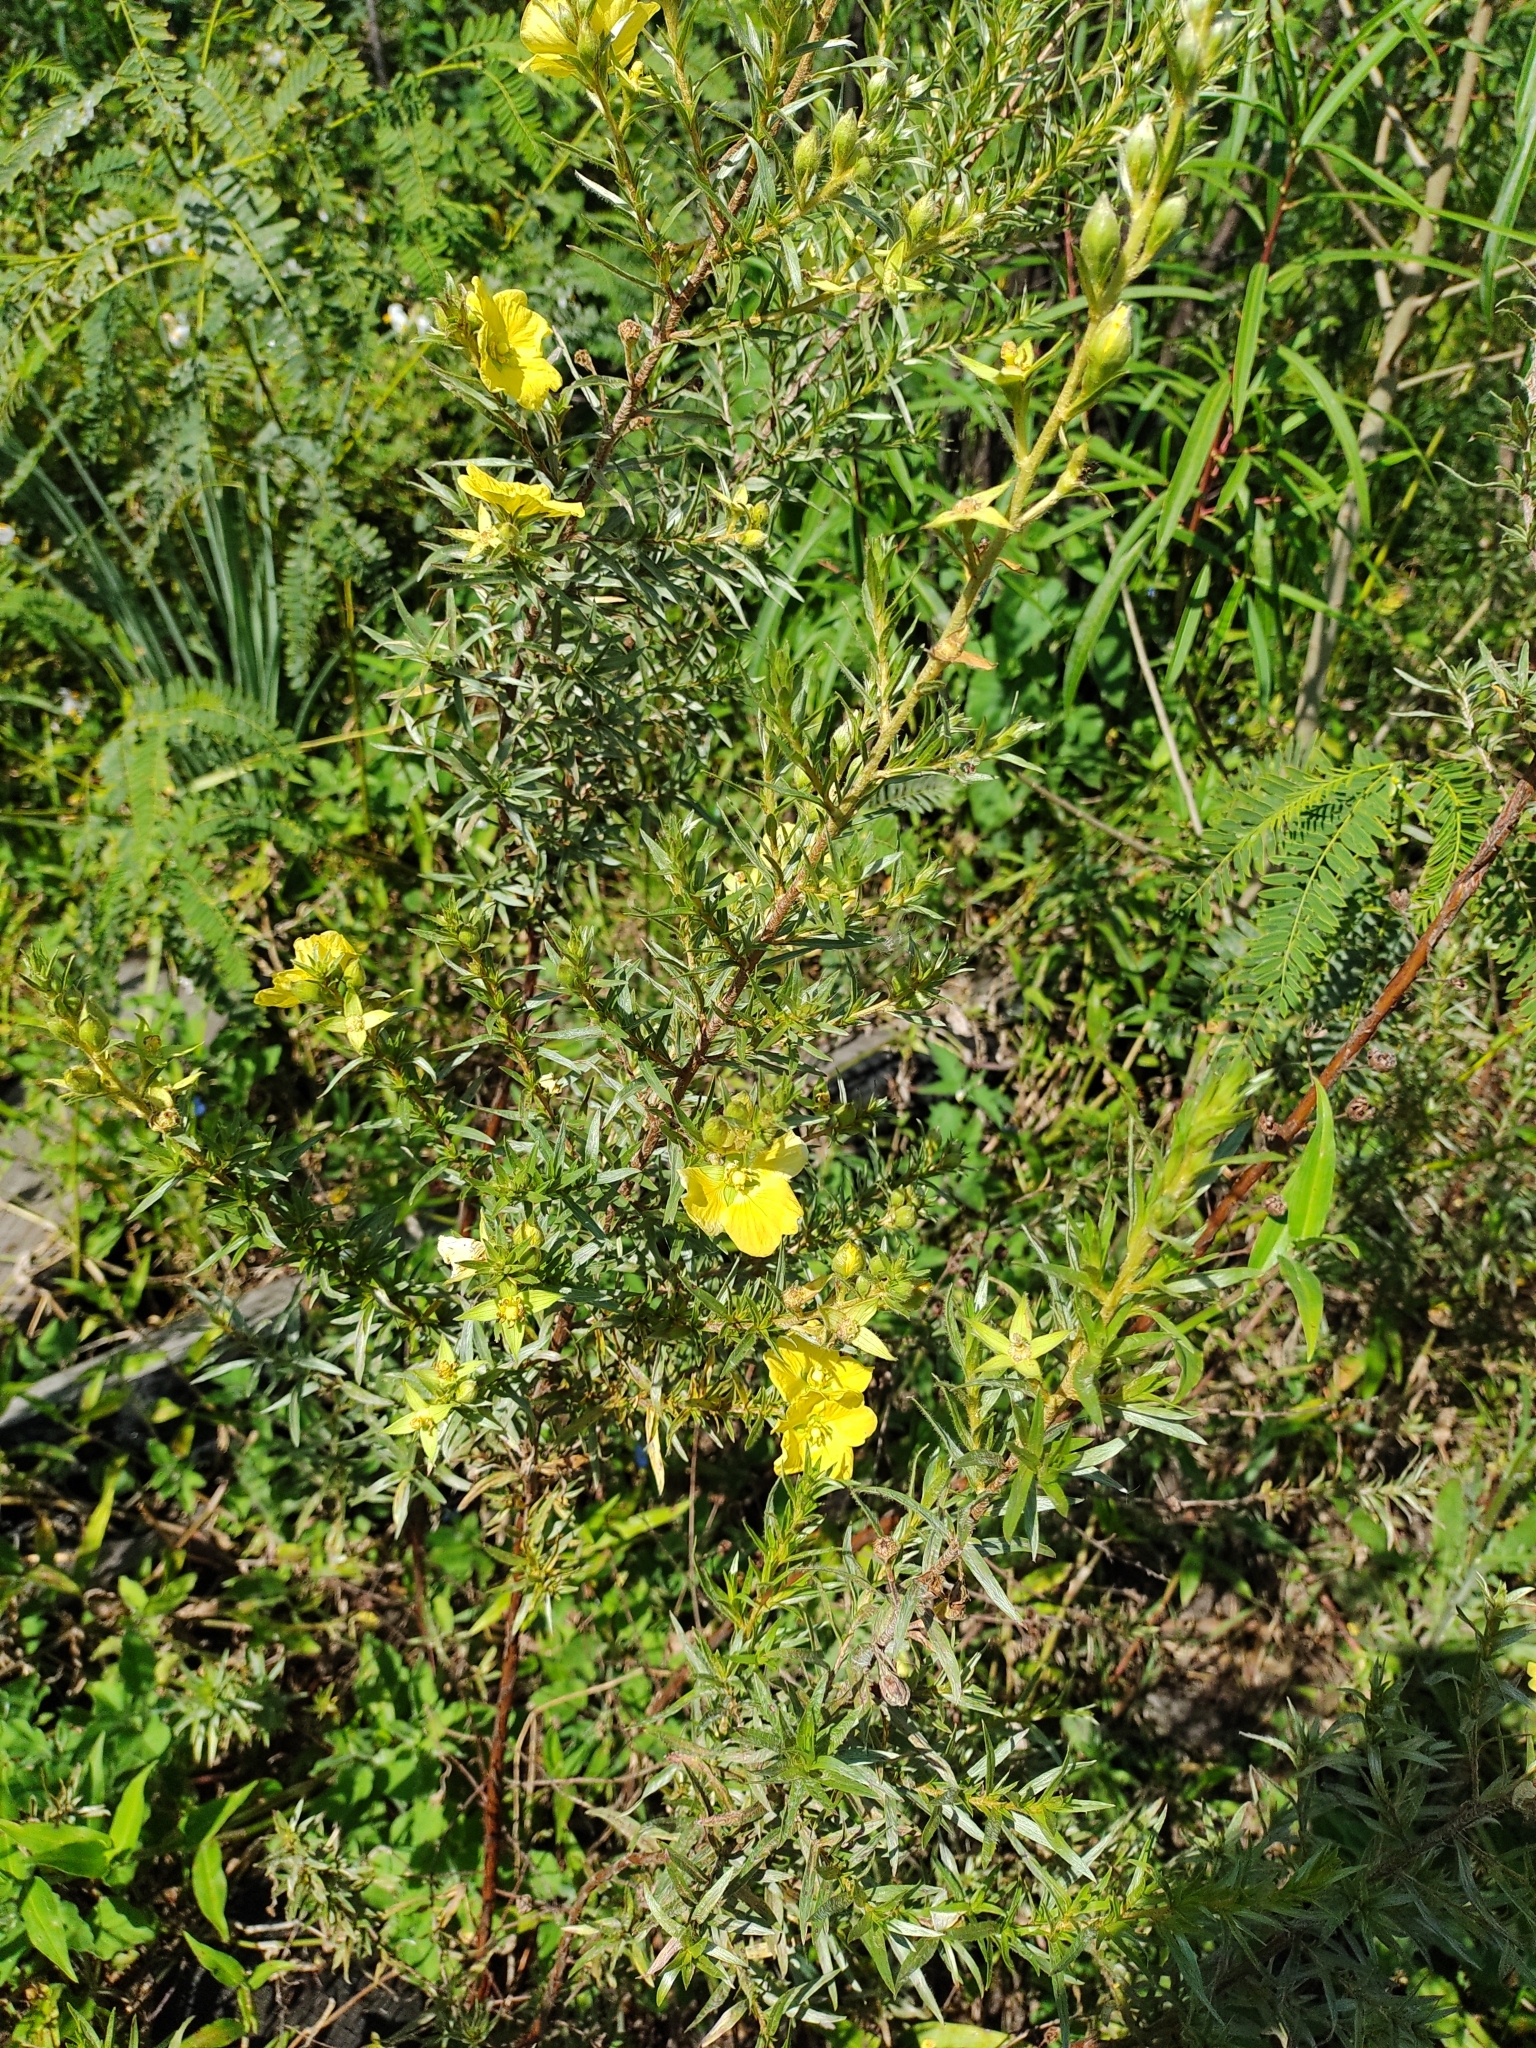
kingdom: Plantae
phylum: Tracheophyta
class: Magnoliopsida
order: Myrtales
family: Onagraceae
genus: Ludwigia
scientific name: Ludwigia sericea
